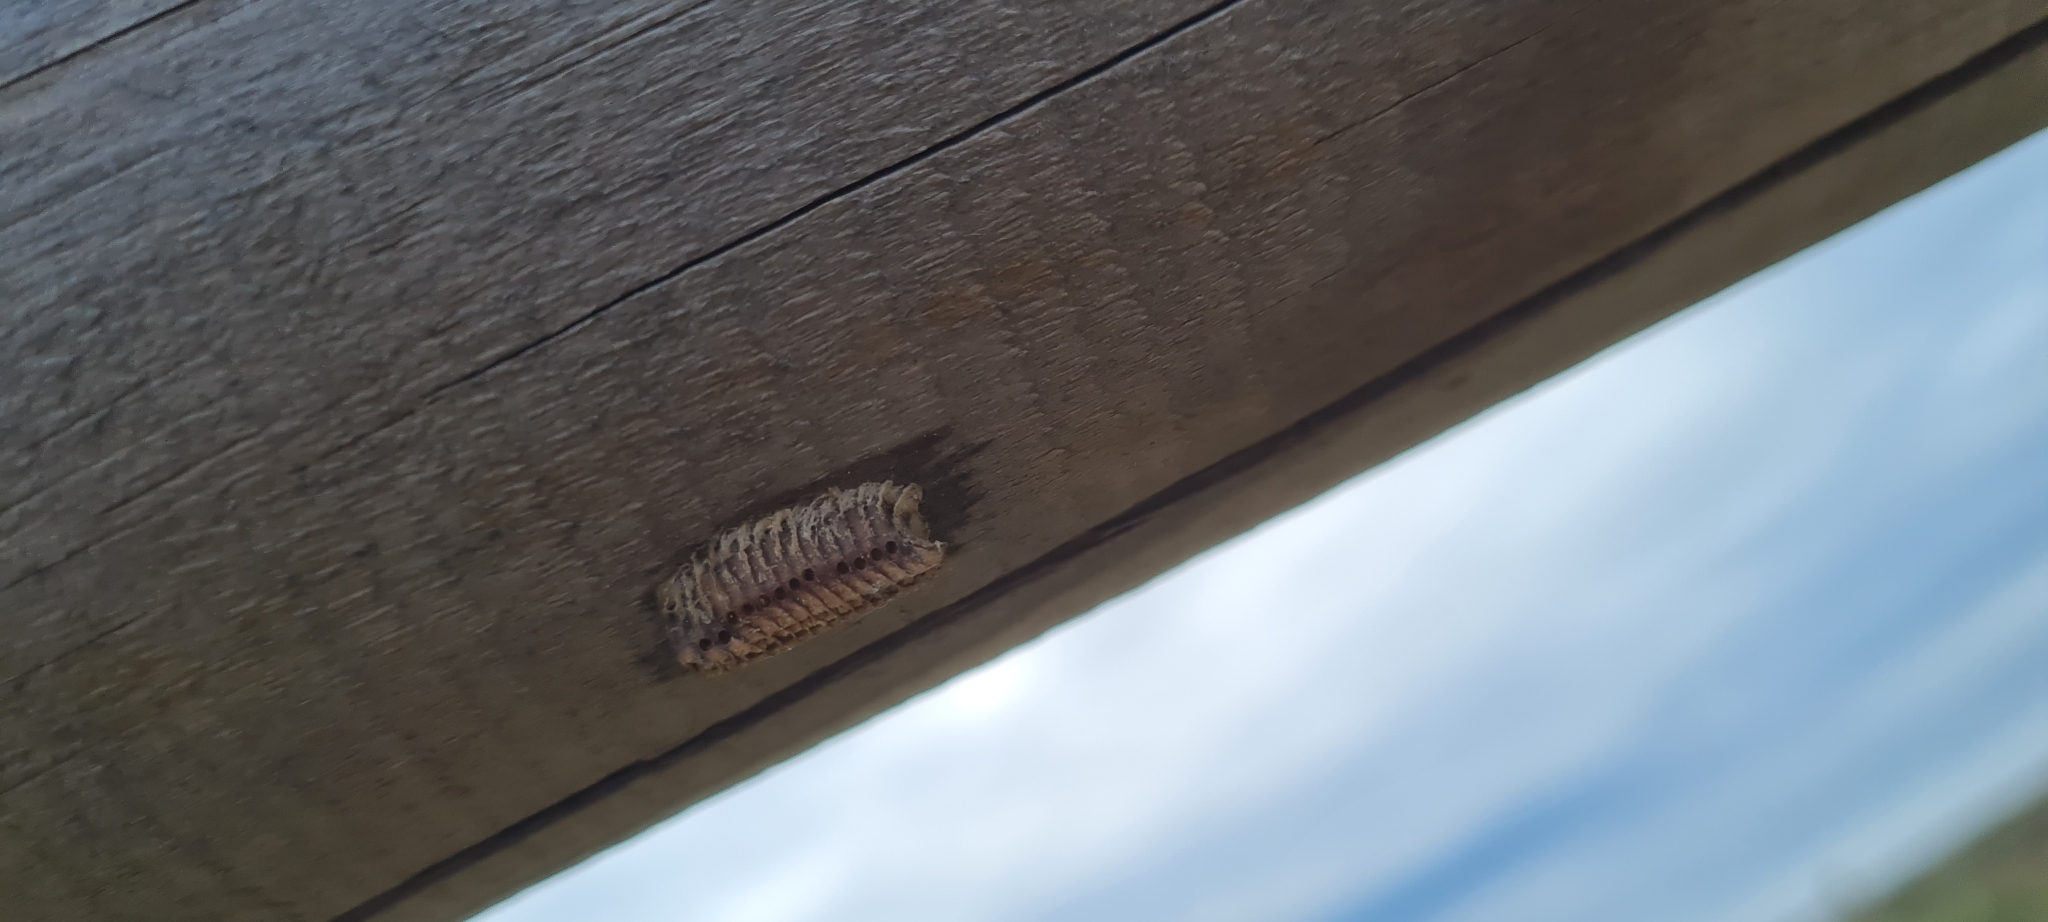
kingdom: Animalia
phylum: Arthropoda
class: Insecta
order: Mantodea
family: Eremiaphilidae
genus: Iris
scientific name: Iris oratoria
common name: Mediterranean mantis
